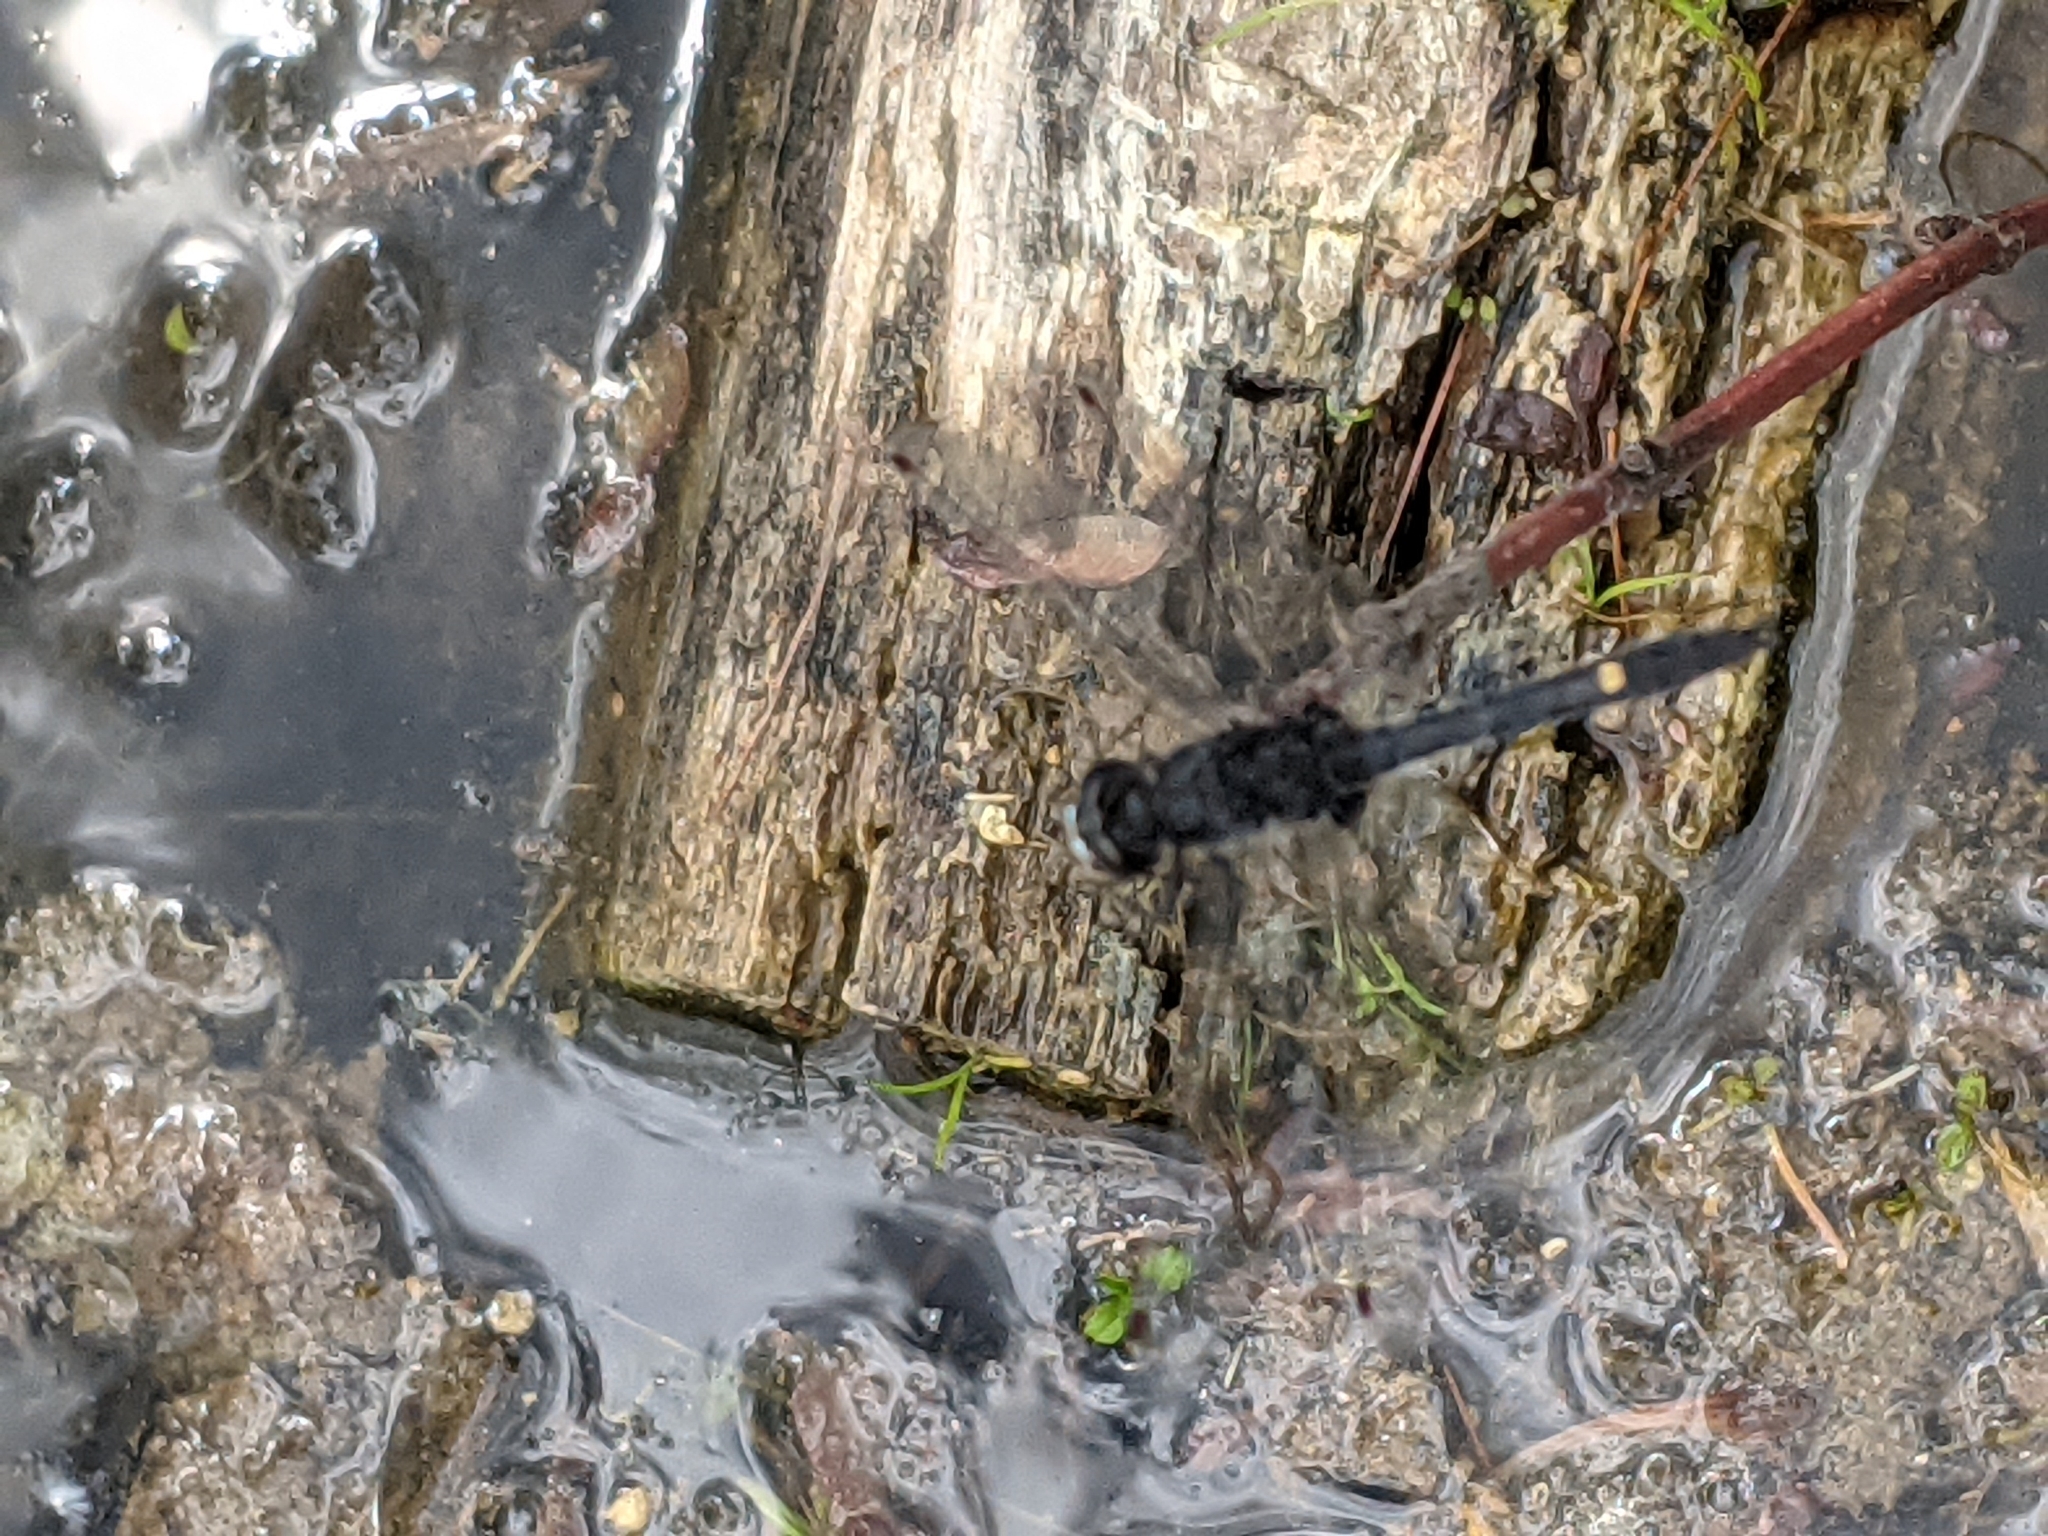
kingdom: Animalia
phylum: Arthropoda
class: Insecta
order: Odonata
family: Libellulidae
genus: Leucorrhinia
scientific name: Leucorrhinia intacta
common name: Dot-tailed whiteface
